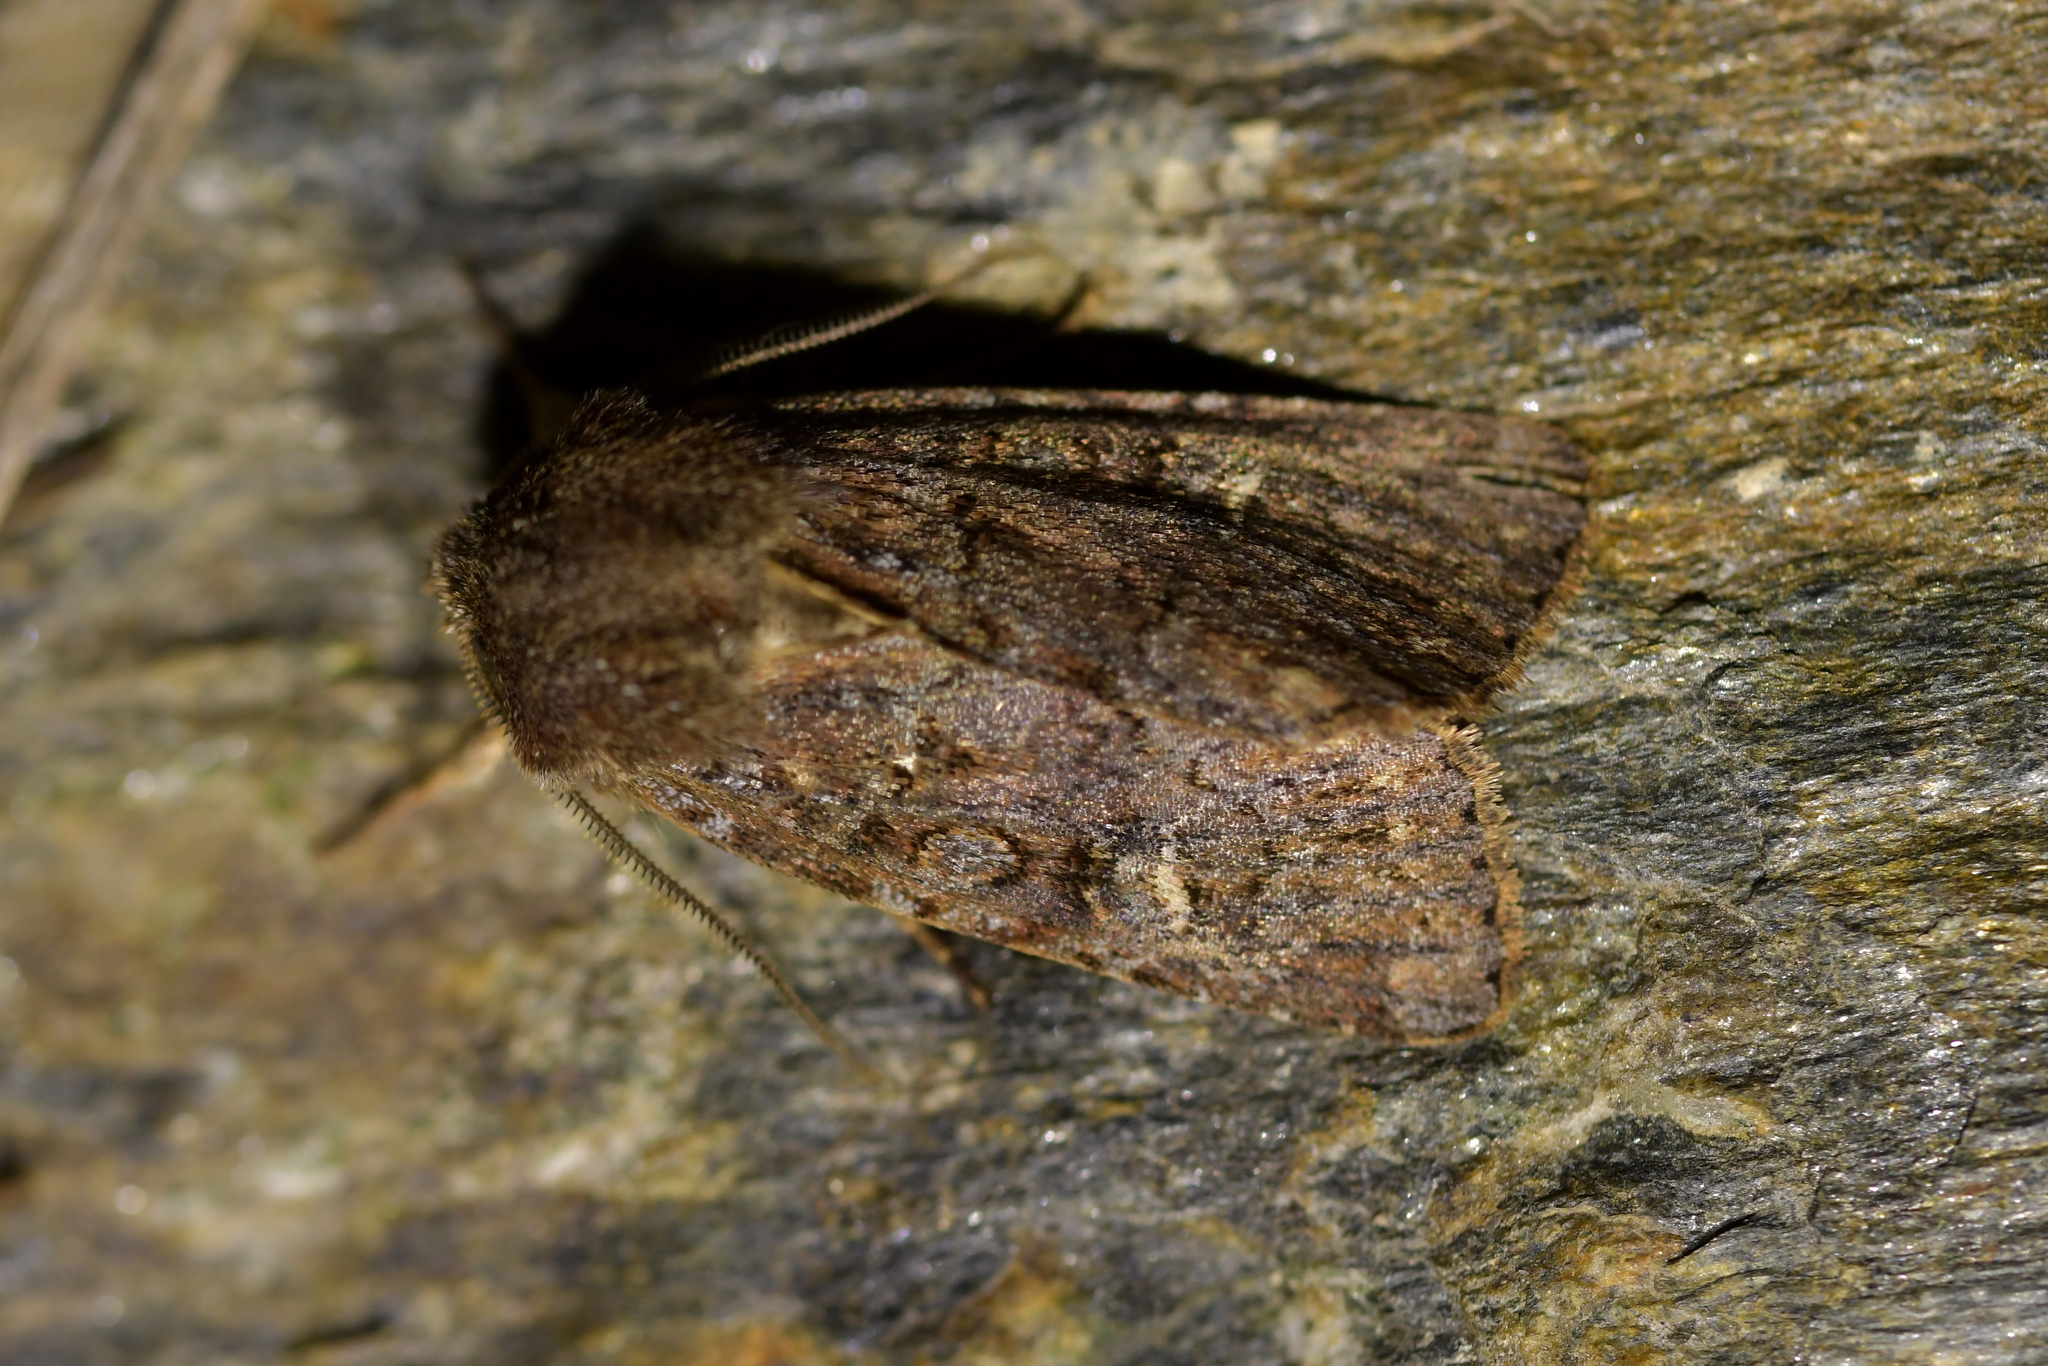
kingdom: Animalia
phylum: Arthropoda
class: Insecta
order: Lepidoptera
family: Noctuidae
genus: Ichneutica
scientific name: Ichneutica agorastis
